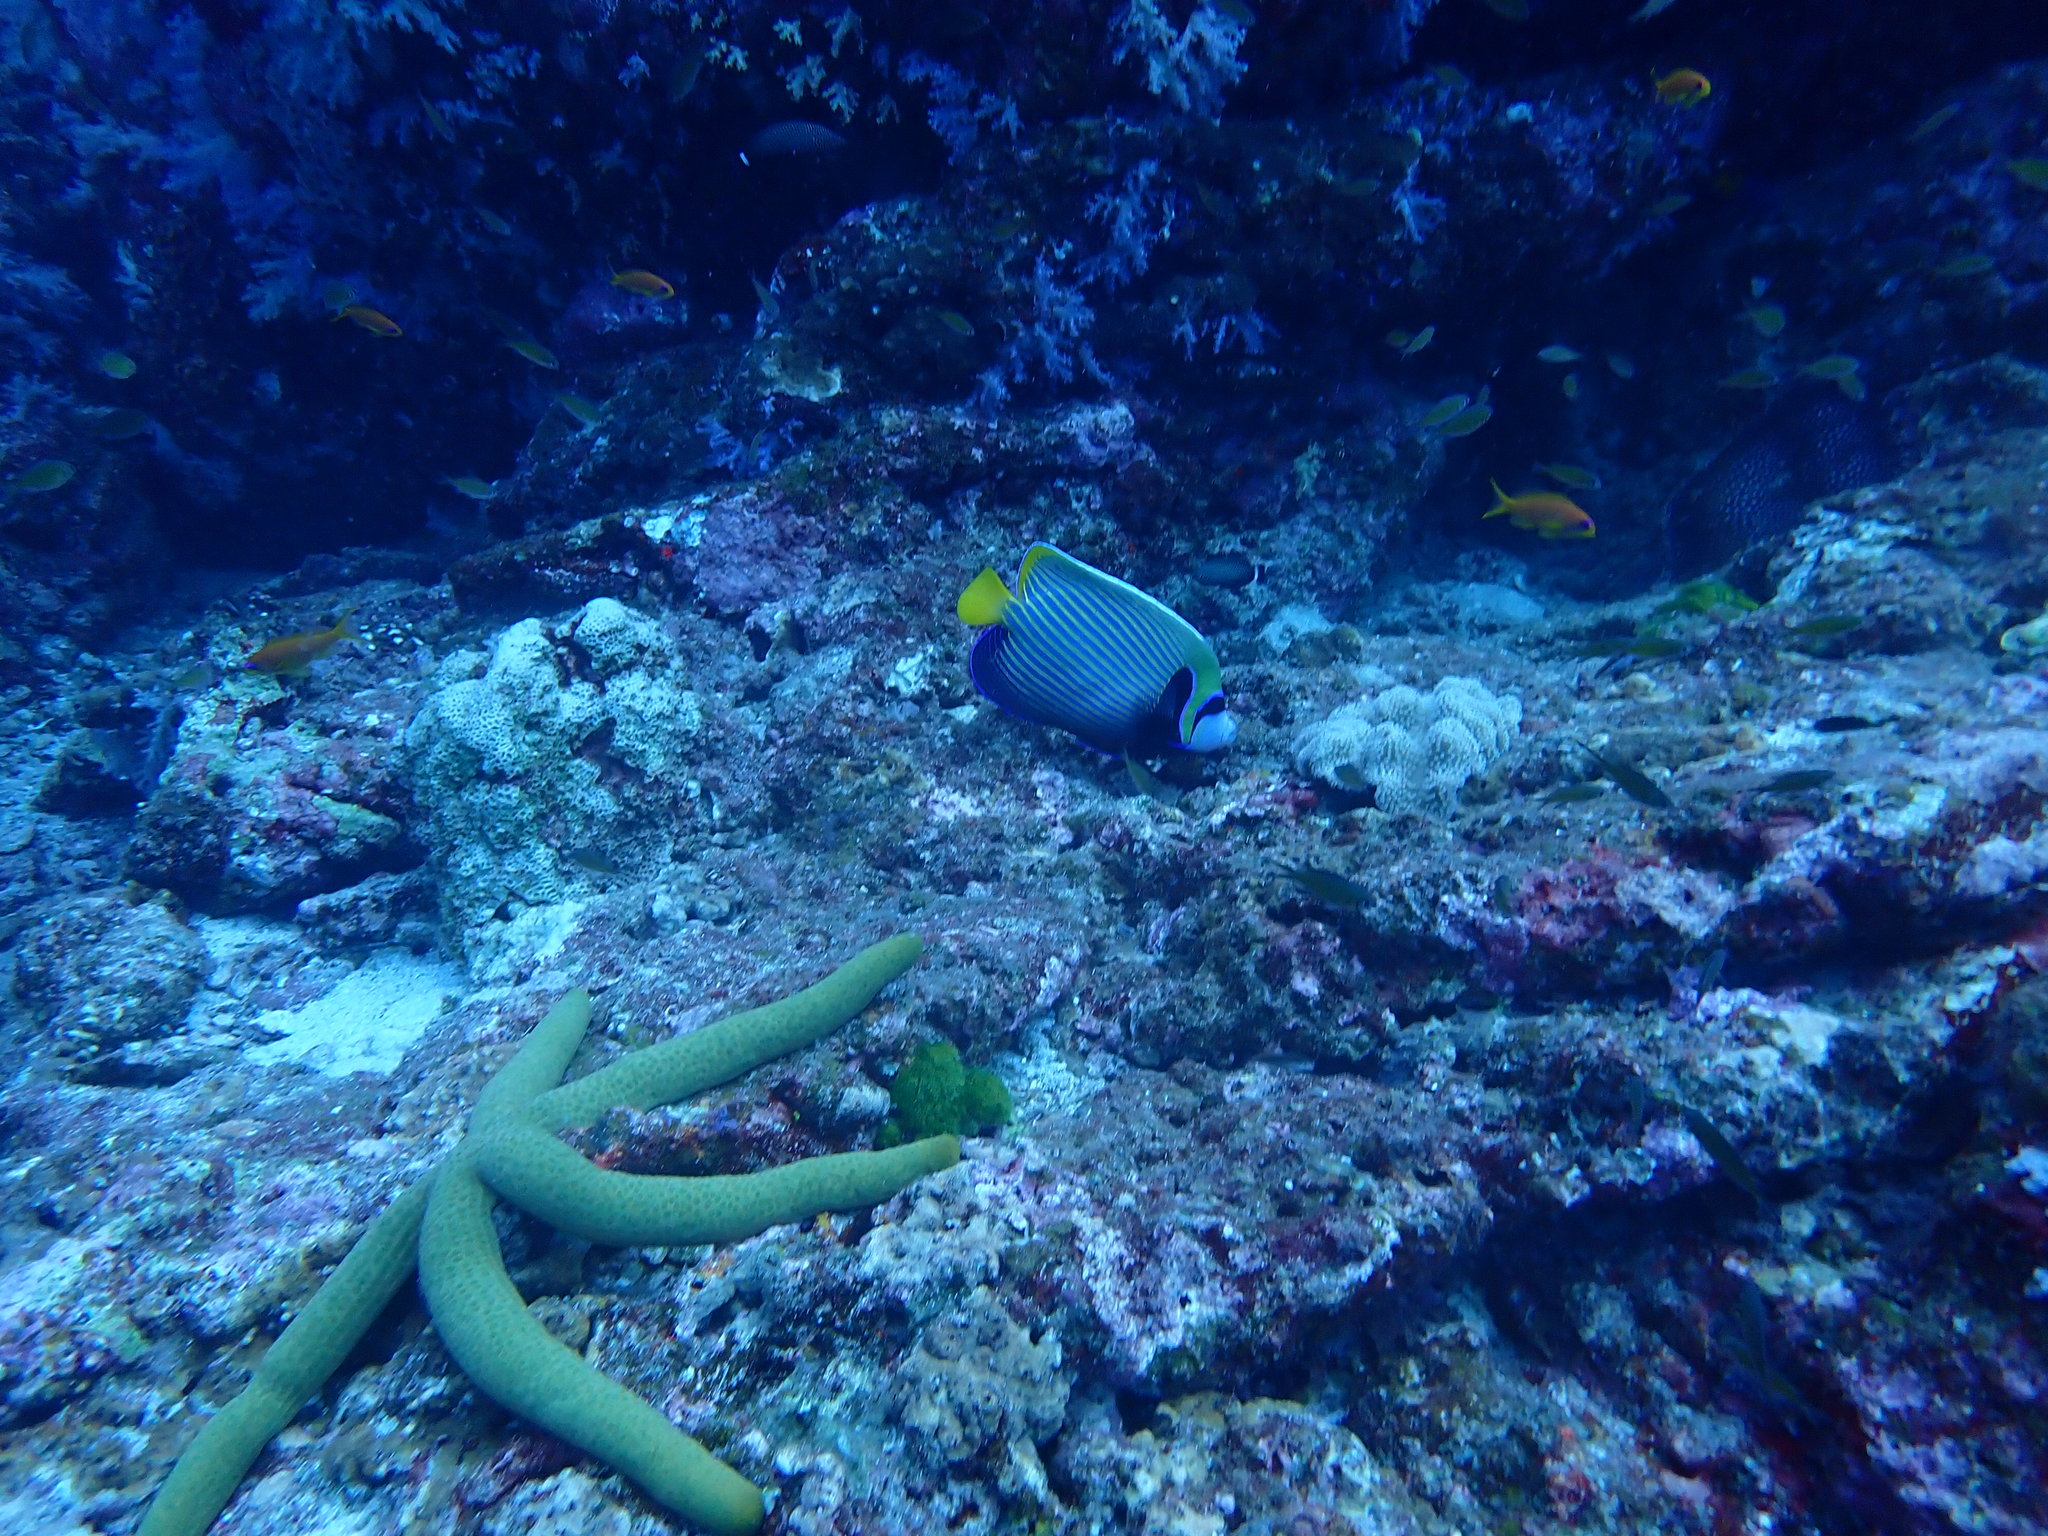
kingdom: Animalia
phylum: Chordata
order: Perciformes
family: Pomacanthidae
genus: Pomacanthus
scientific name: Pomacanthus imperator
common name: Emperor angelfish
